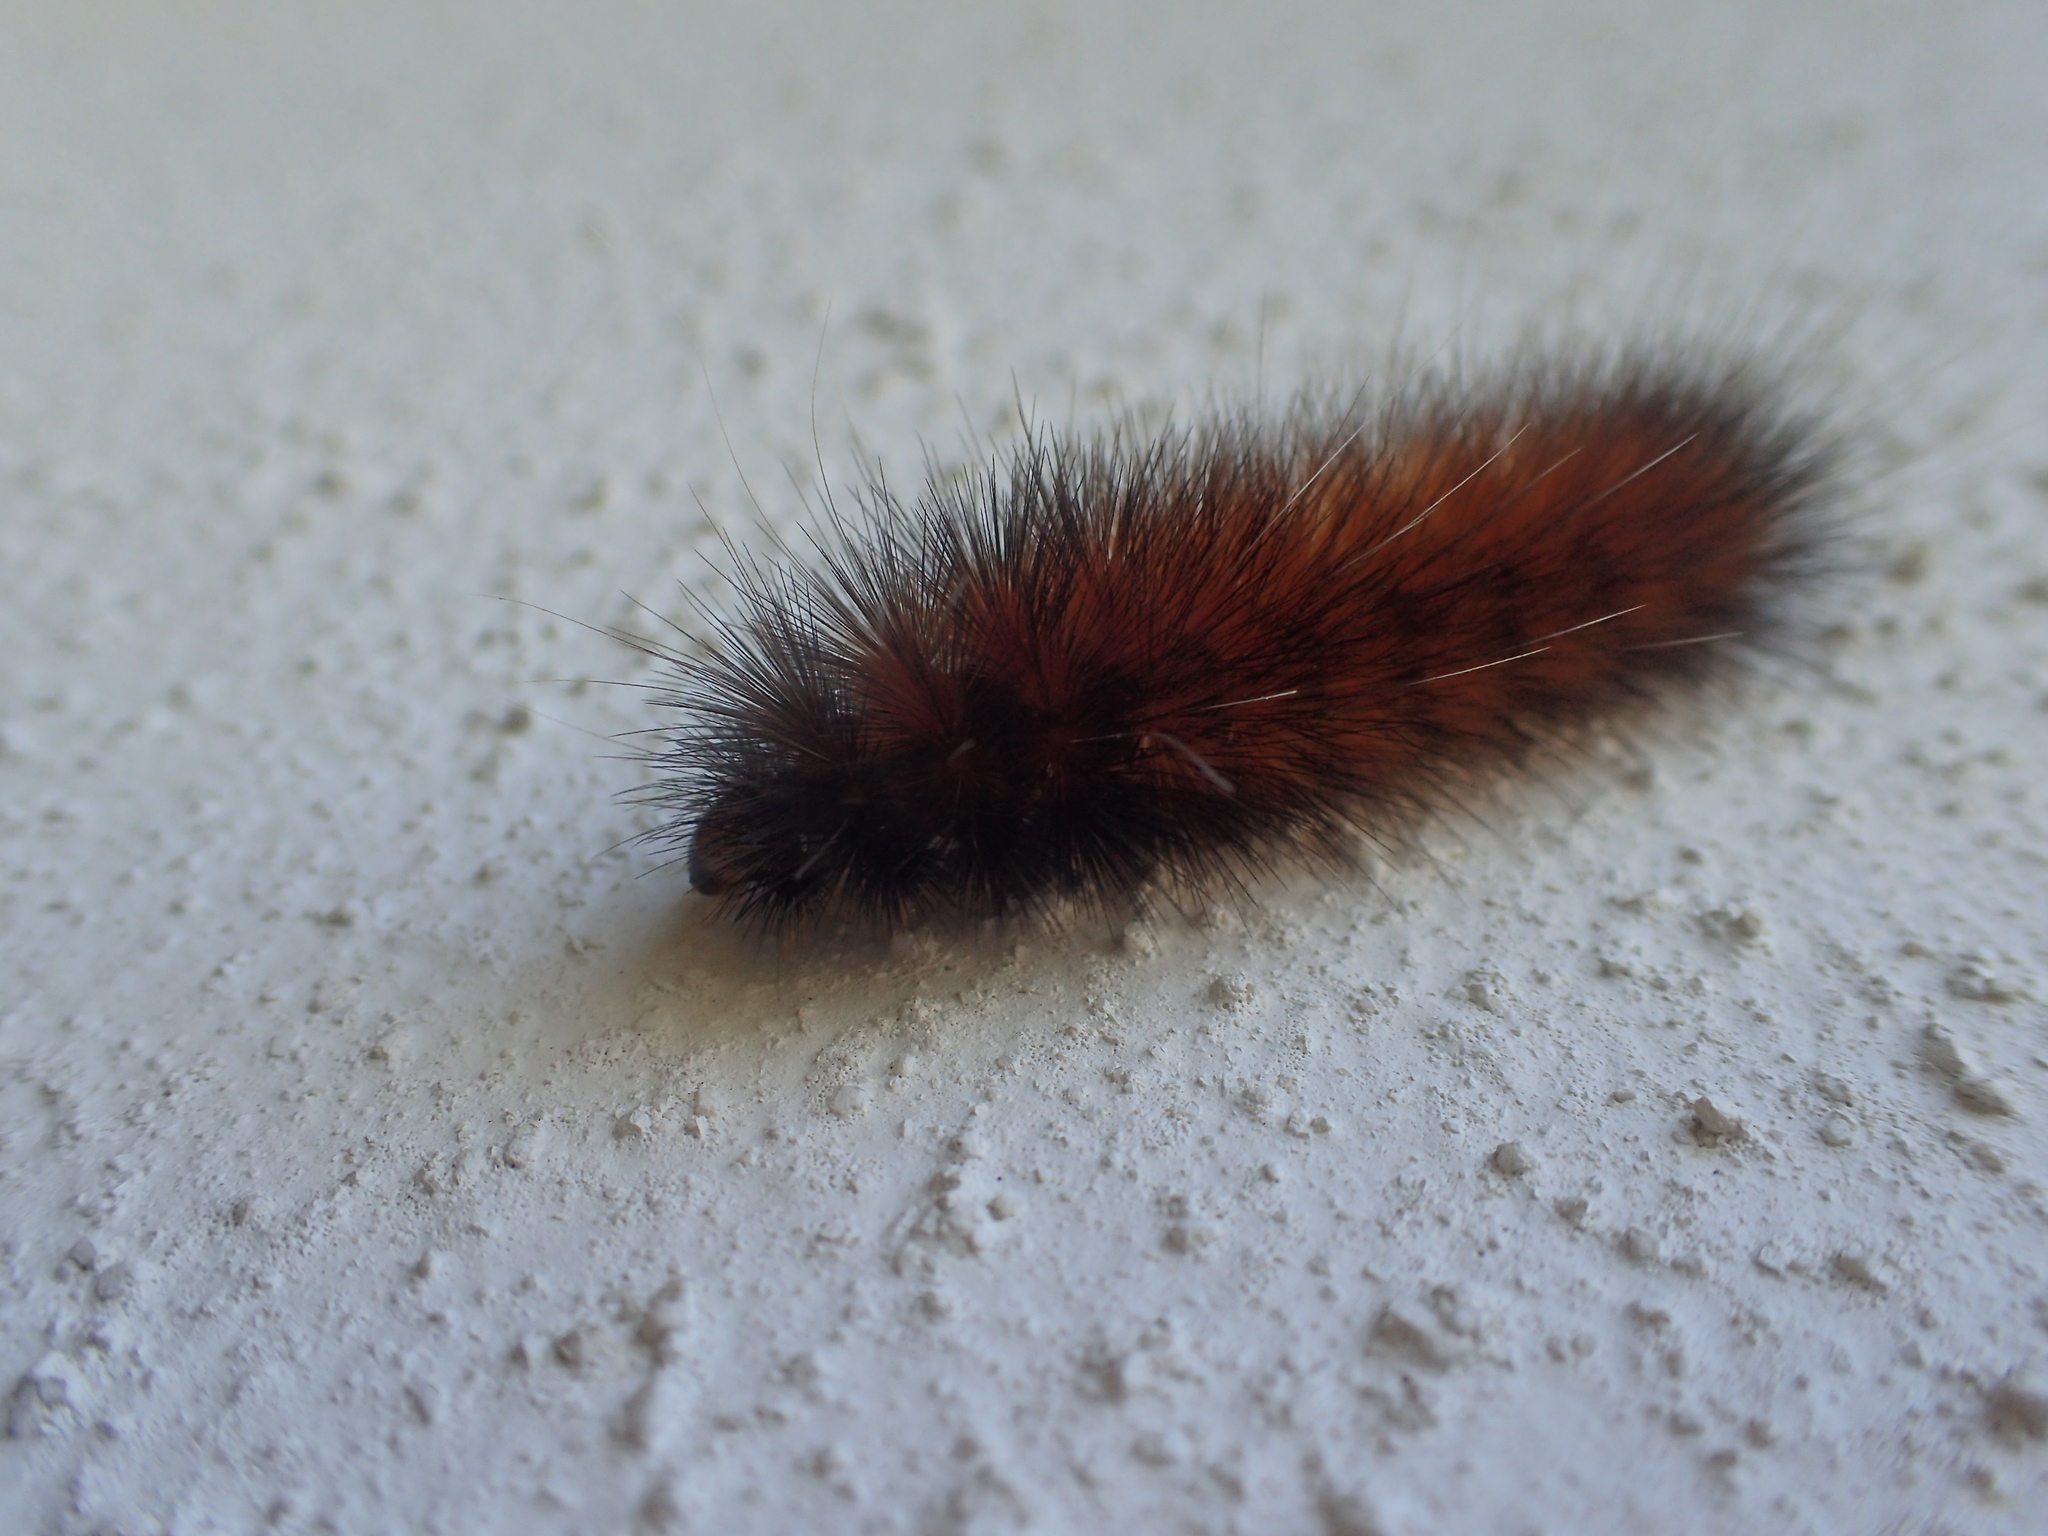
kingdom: Animalia
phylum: Arthropoda
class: Insecta
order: Lepidoptera
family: Erebidae
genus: Spilosoma
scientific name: Spilosoma virginica
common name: Virginia tiger moth
